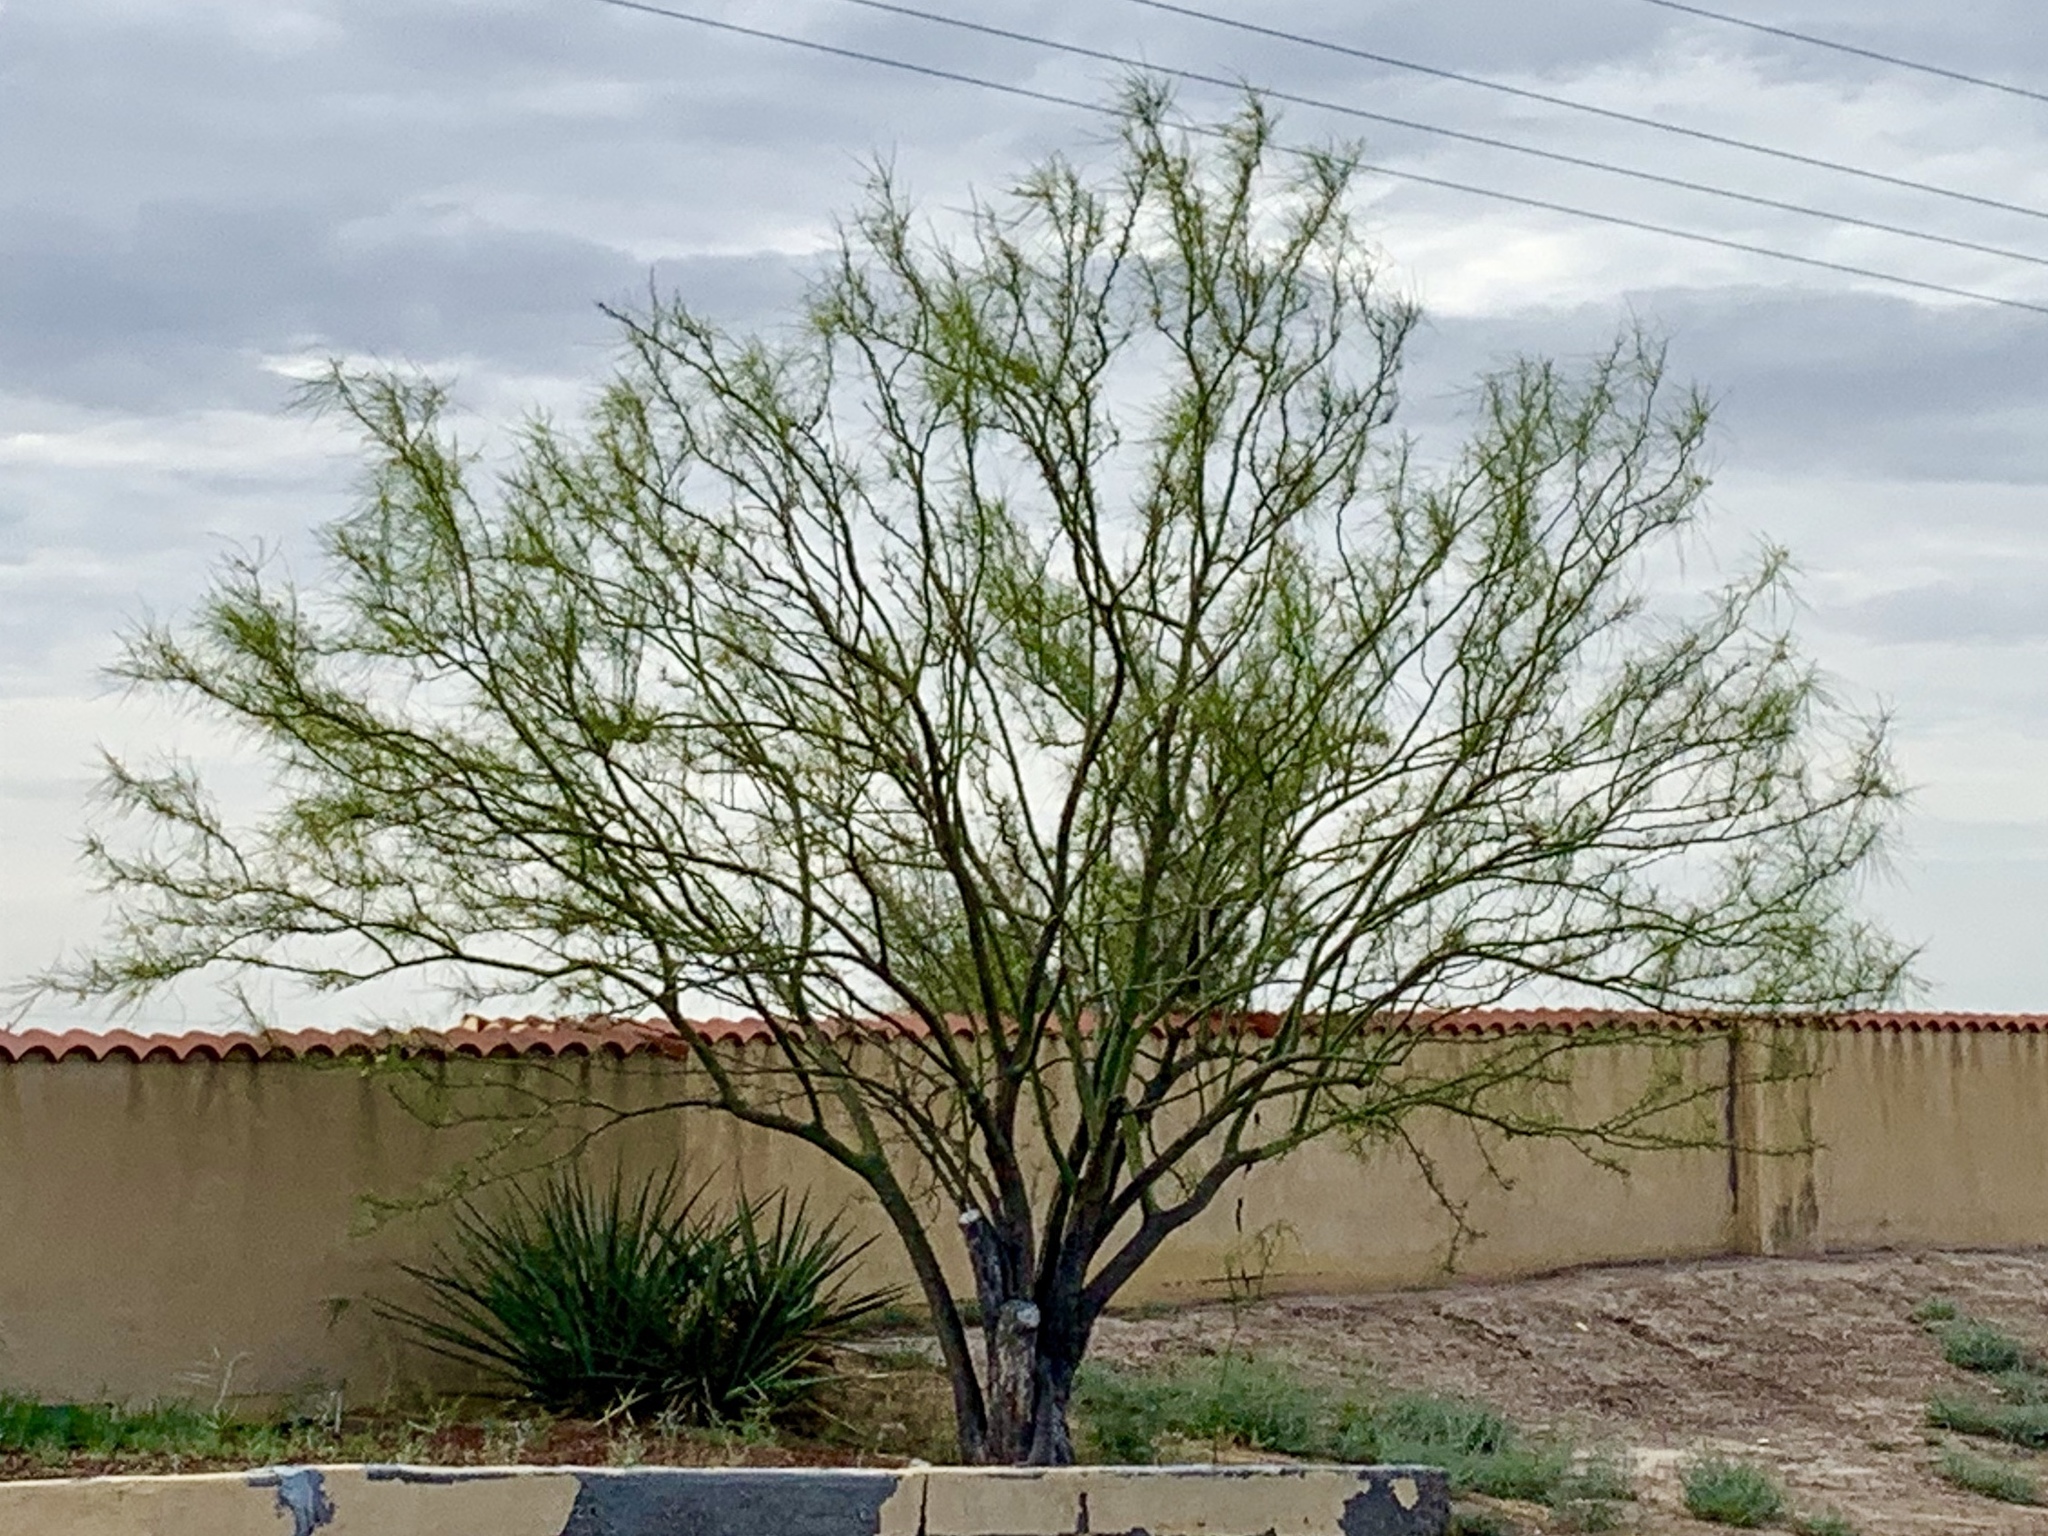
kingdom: Plantae
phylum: Tracheophyta
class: Magnoliopsida
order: Fabales
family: Fabaceae
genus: Parkinsonia
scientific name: Parkinsonia aculeata
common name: Jerusalem thorn
